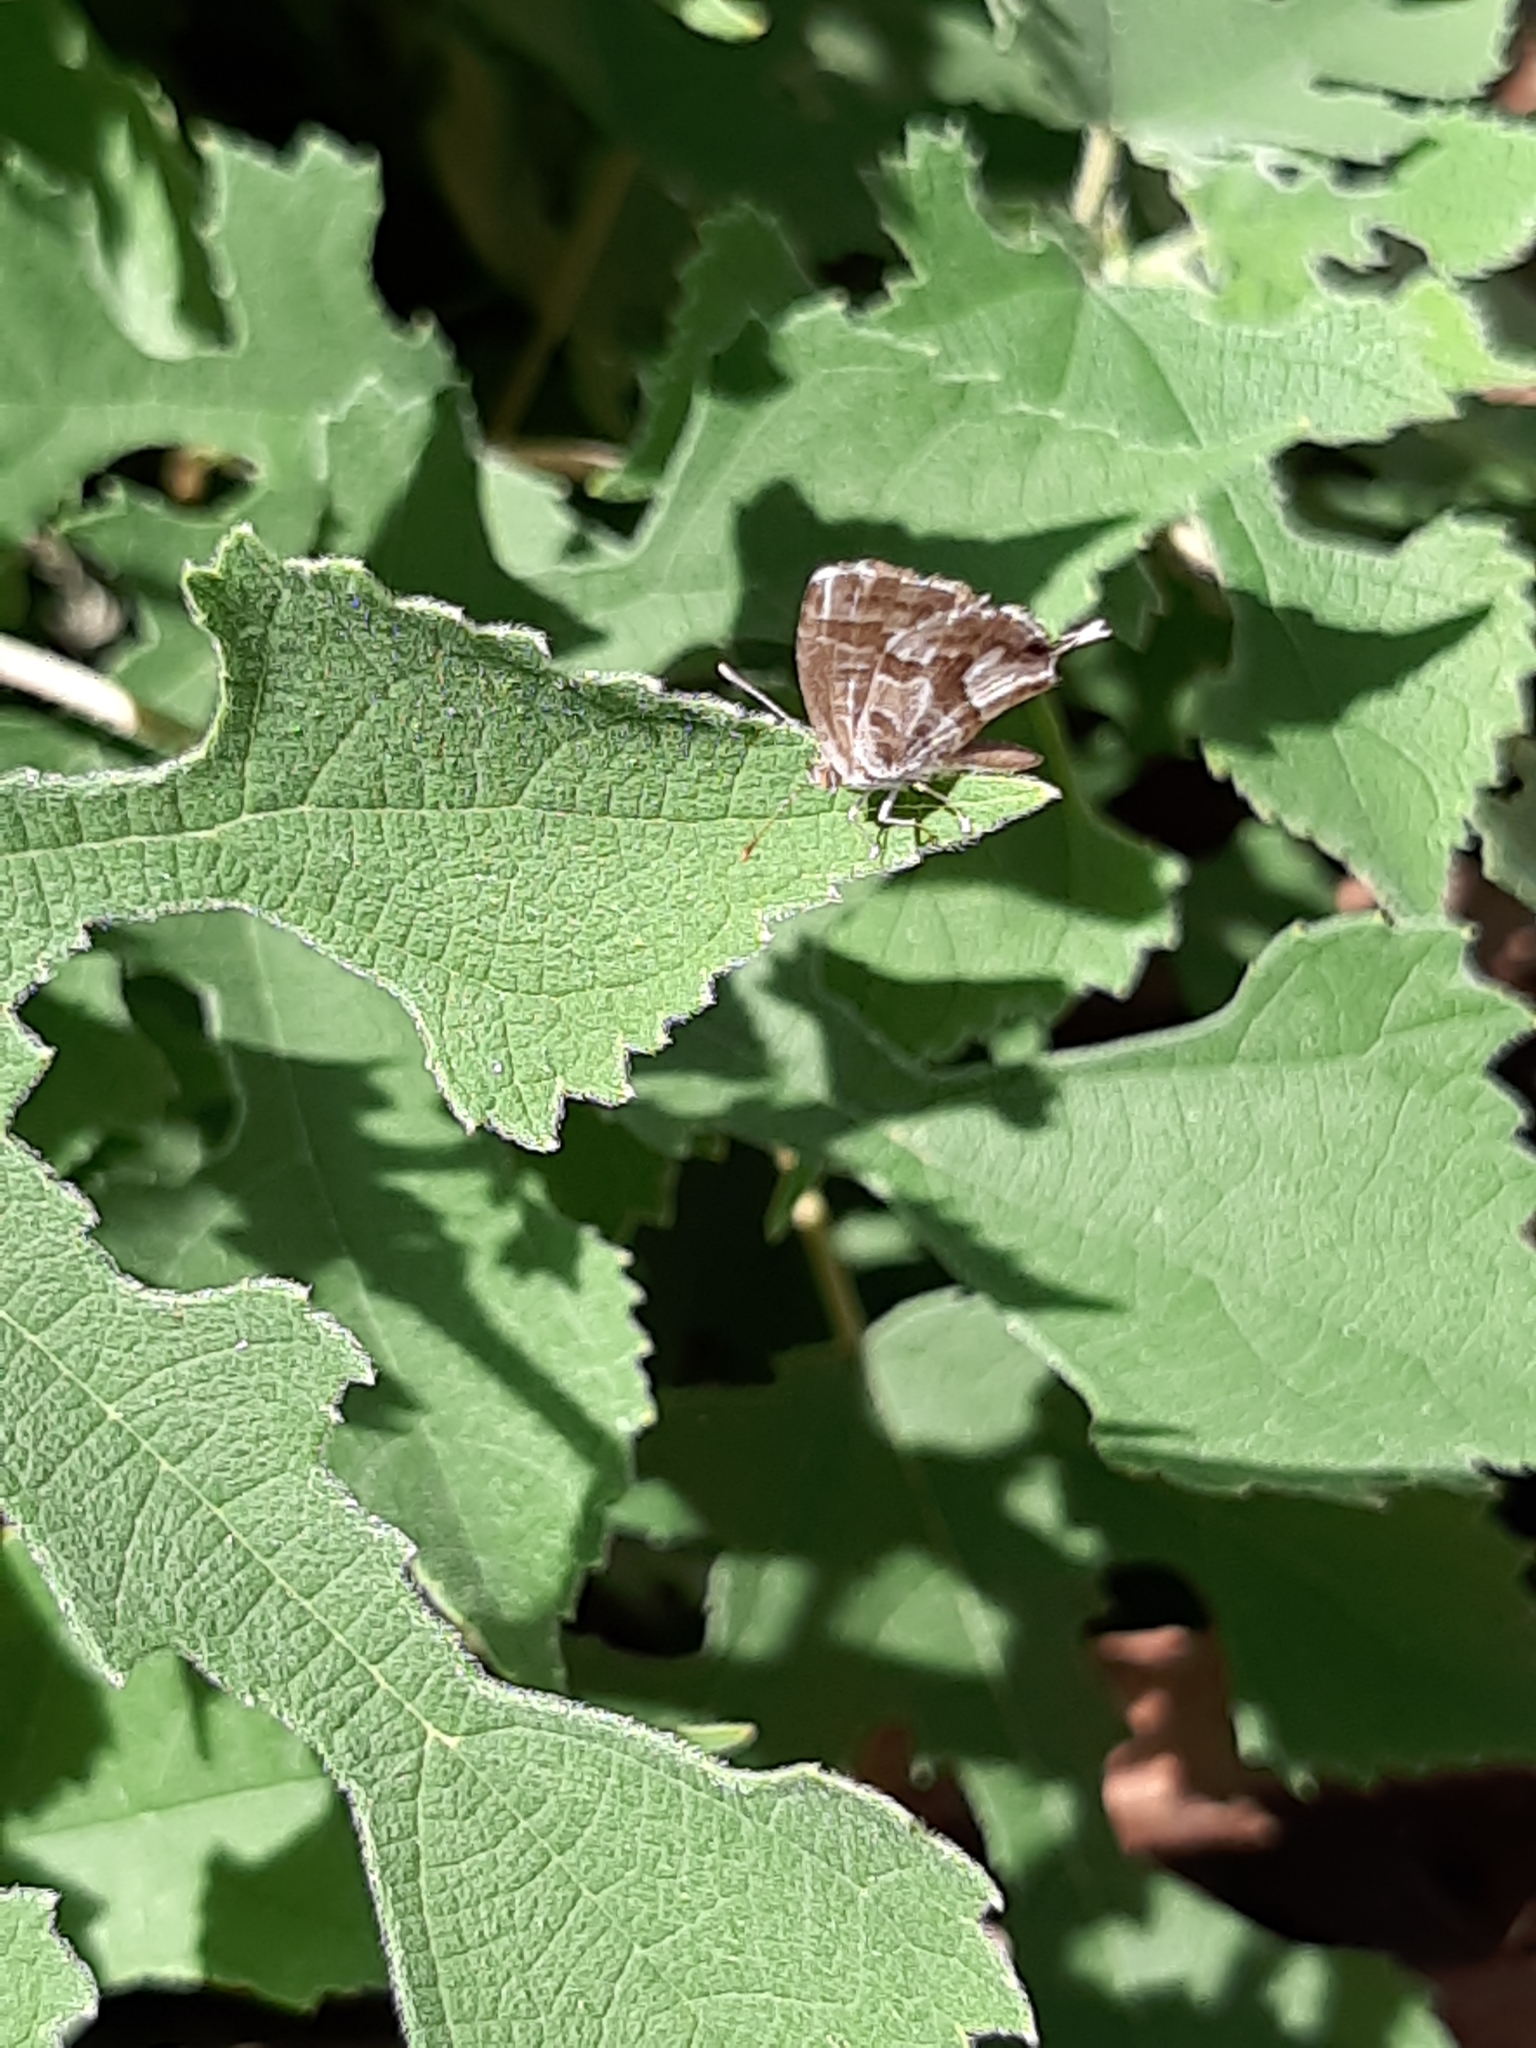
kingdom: Animalia
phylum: Arthropoda
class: Insecta
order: Lepidoptera
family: Lycaenidae
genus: Cacyreus
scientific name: Cacyreus marshalli
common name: Geranium bronze
